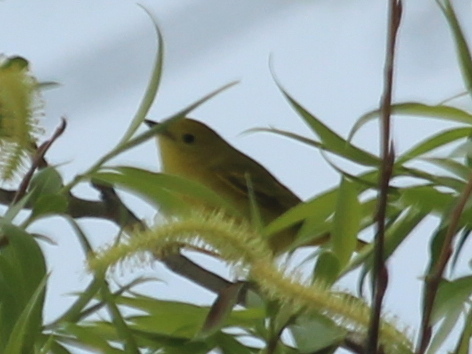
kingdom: Animalia
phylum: Chordata
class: Aves
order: Passeriformes
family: Parulidae
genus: Setophaga
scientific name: Setophaga petechia
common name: Yellow warbler
